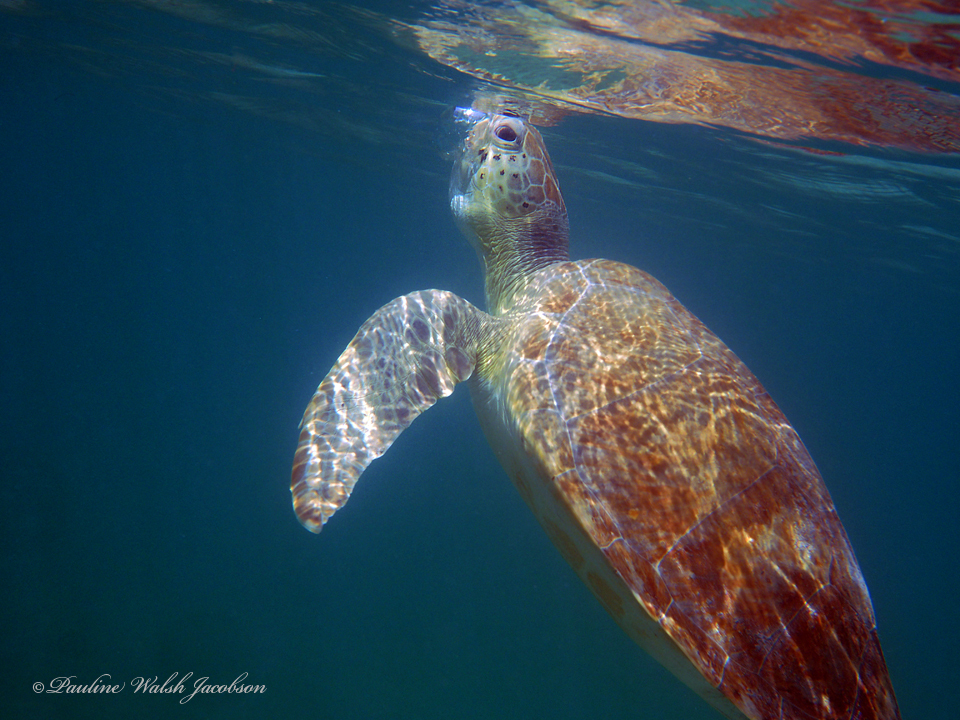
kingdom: Animalia
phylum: Chordata
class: Testudines
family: Cheloniidae
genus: Chelonia
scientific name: Chelonia mydas
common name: Green turtle
